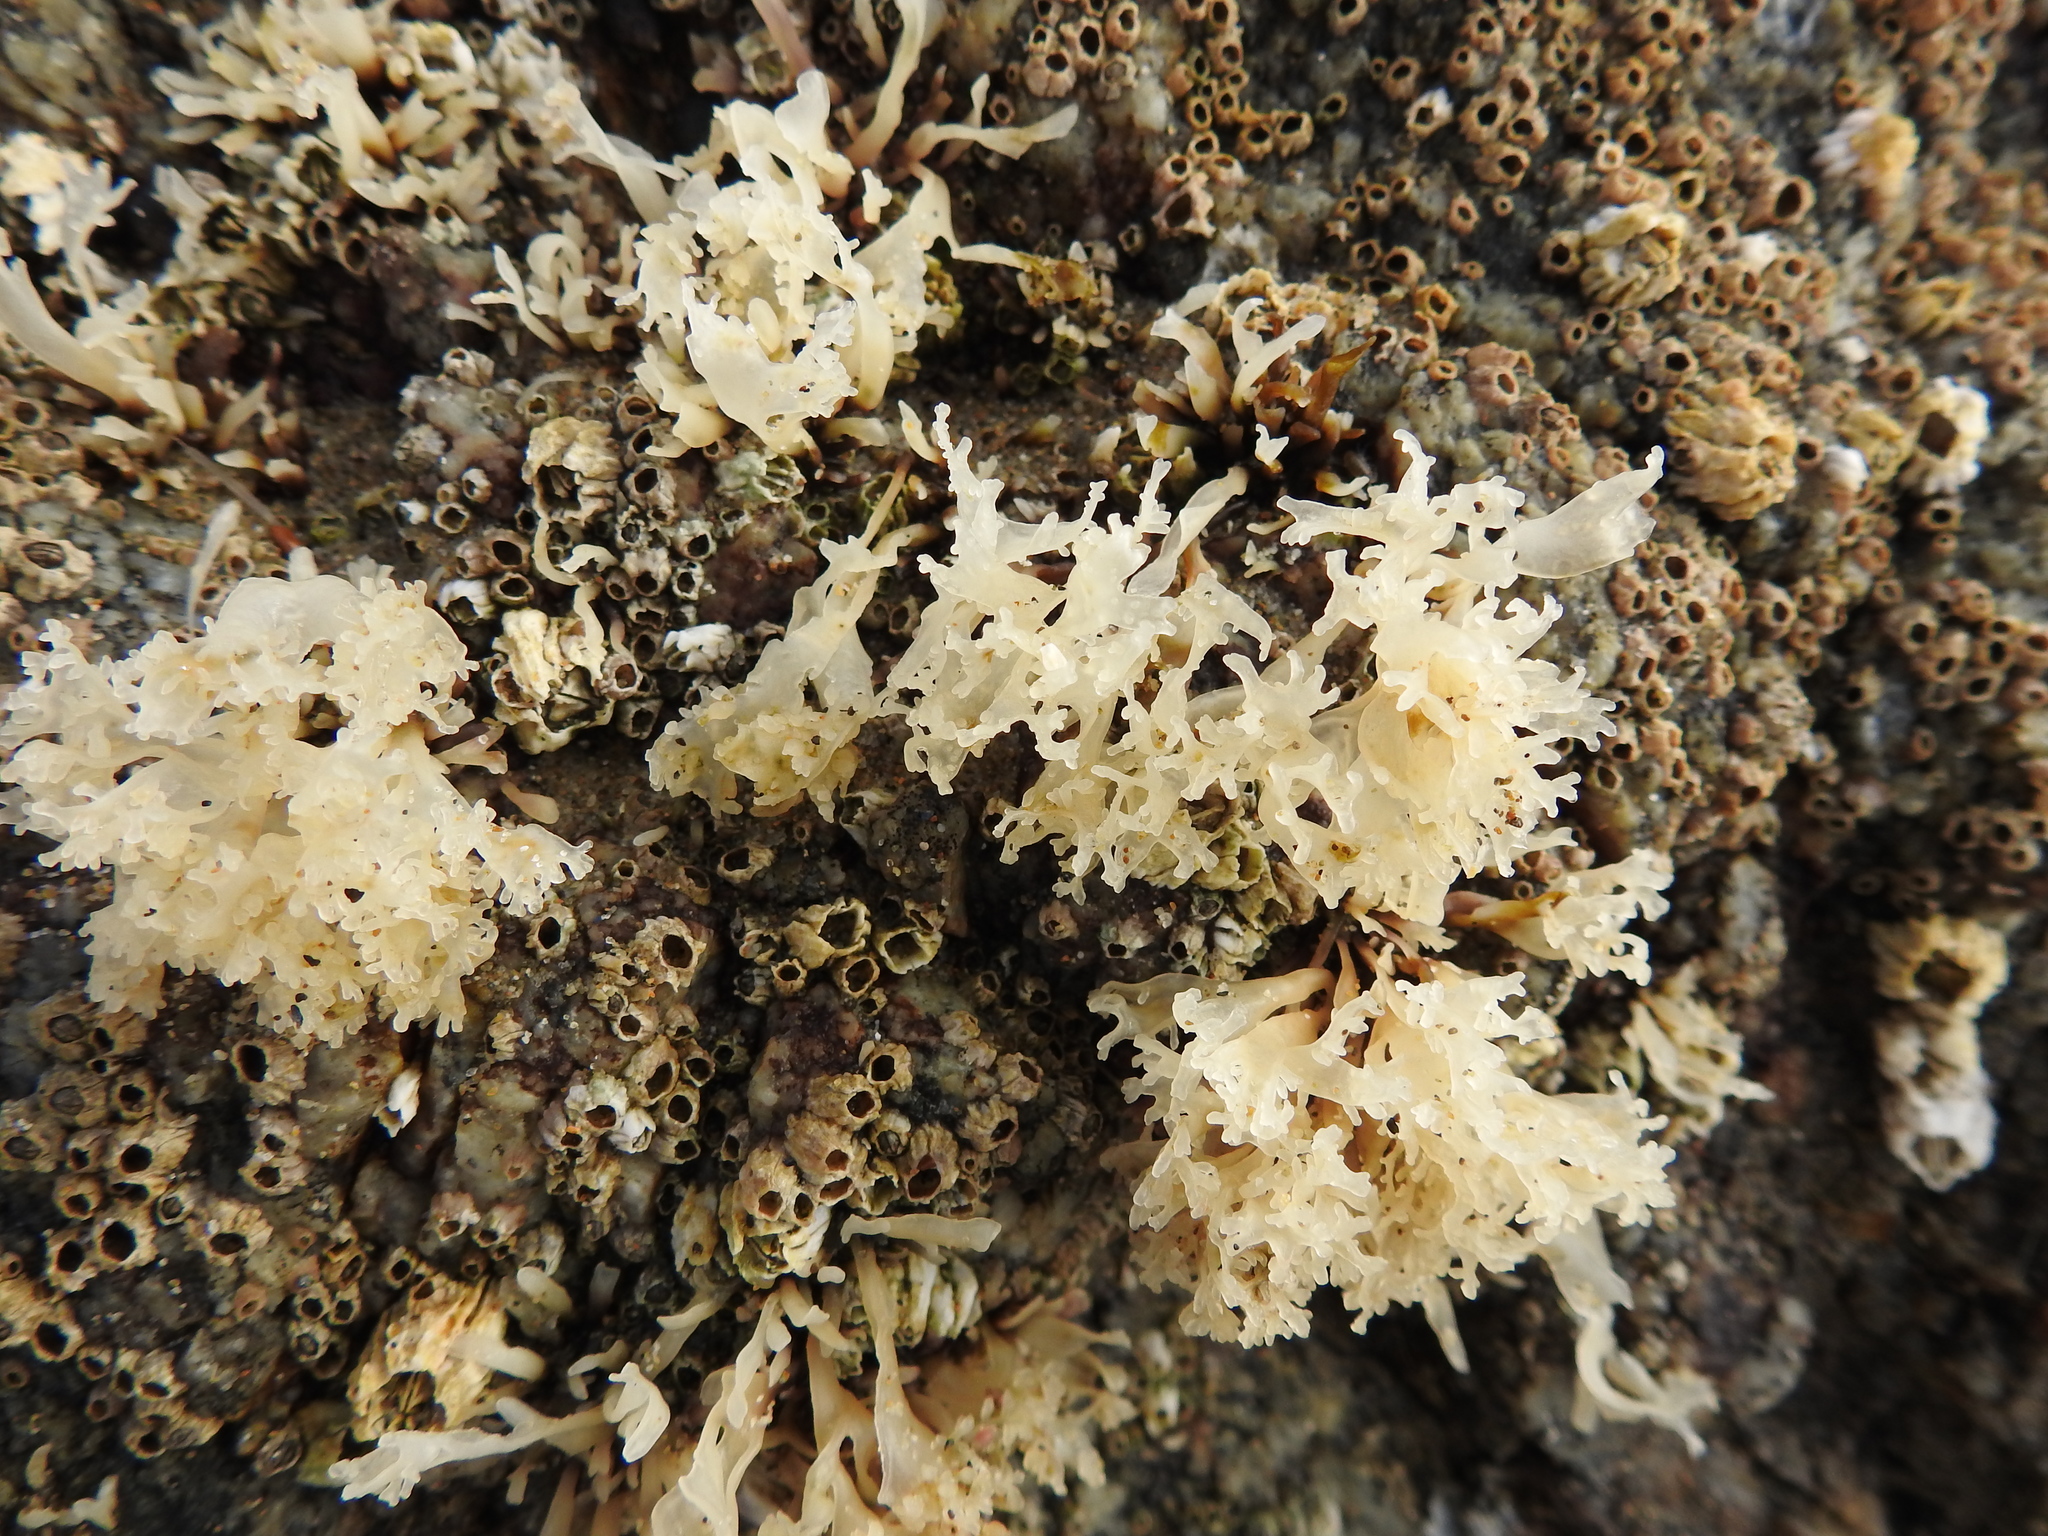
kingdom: Plantae
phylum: Rhodophyta
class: Florideophyceae
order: Gigartinales
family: Phyllophoraceae
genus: Mastocarpus
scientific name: Mastocarpus papillatus
